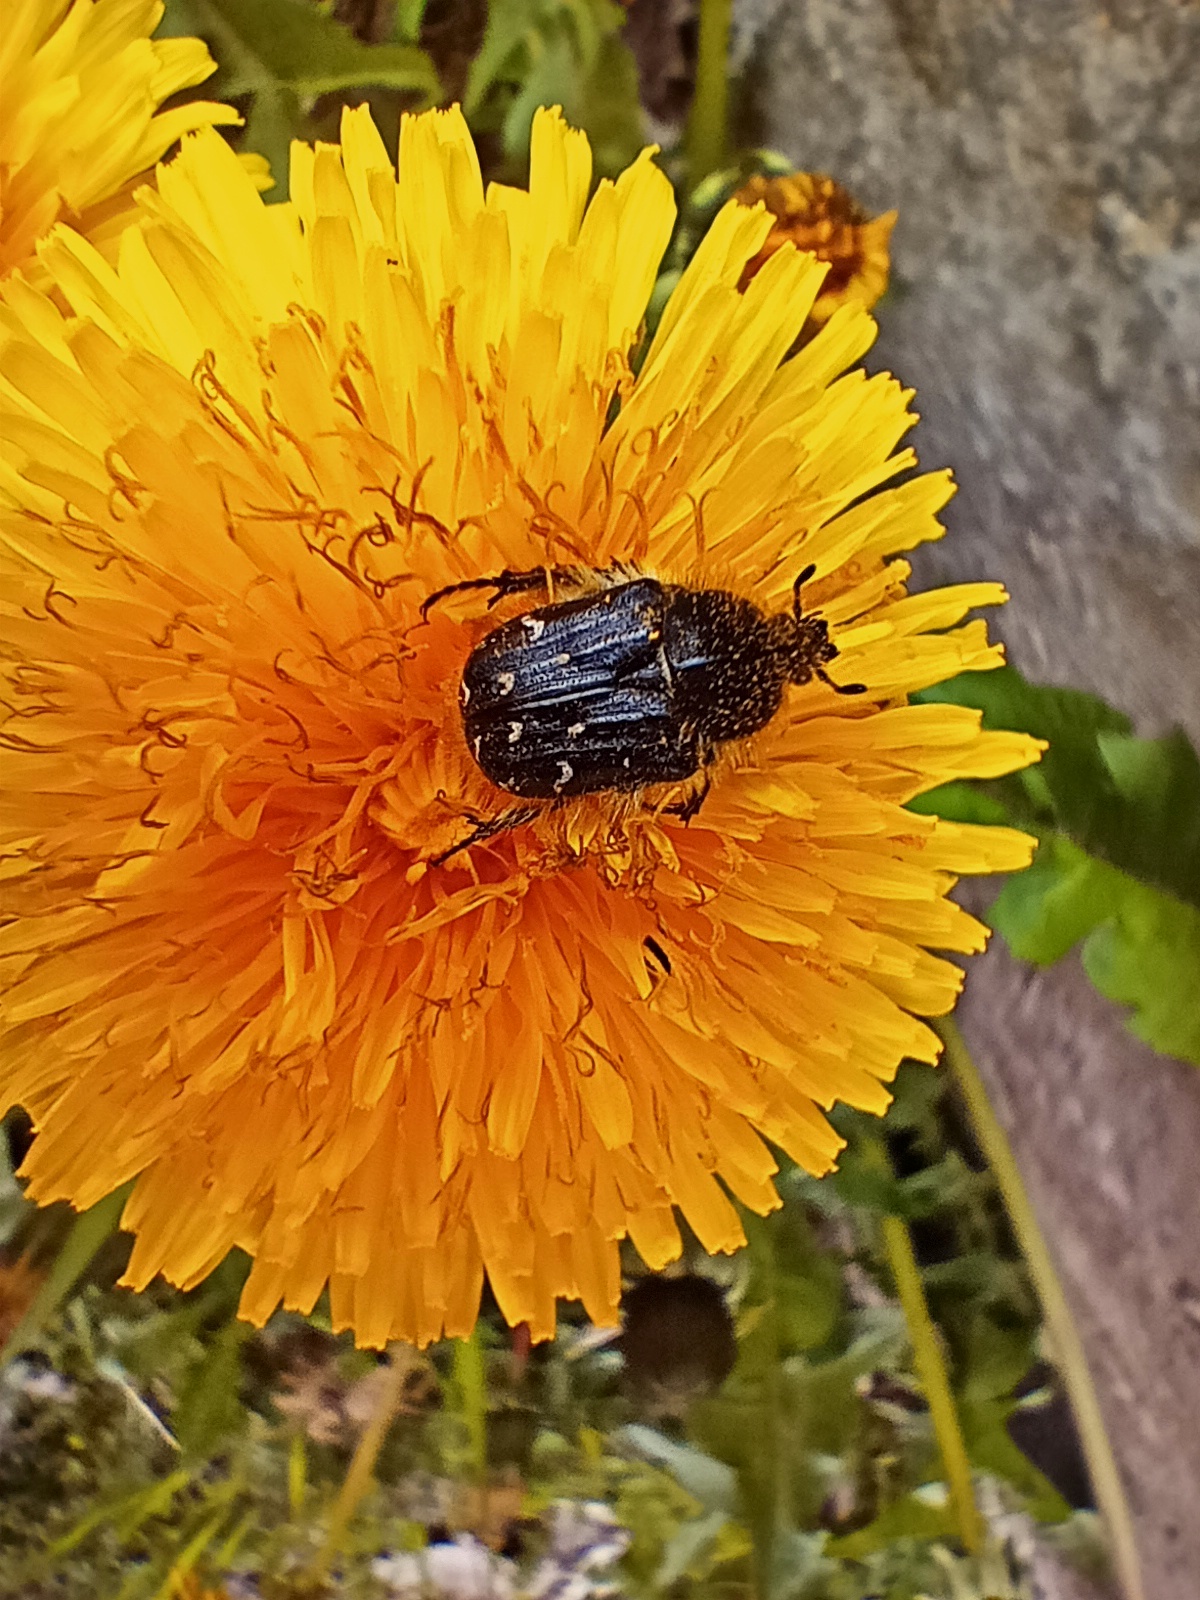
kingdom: Animalia
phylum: Arthropoda
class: Insecta
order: Coleoptera
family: Scarabaeidae
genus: Tropinota
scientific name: Tropinota hirta
